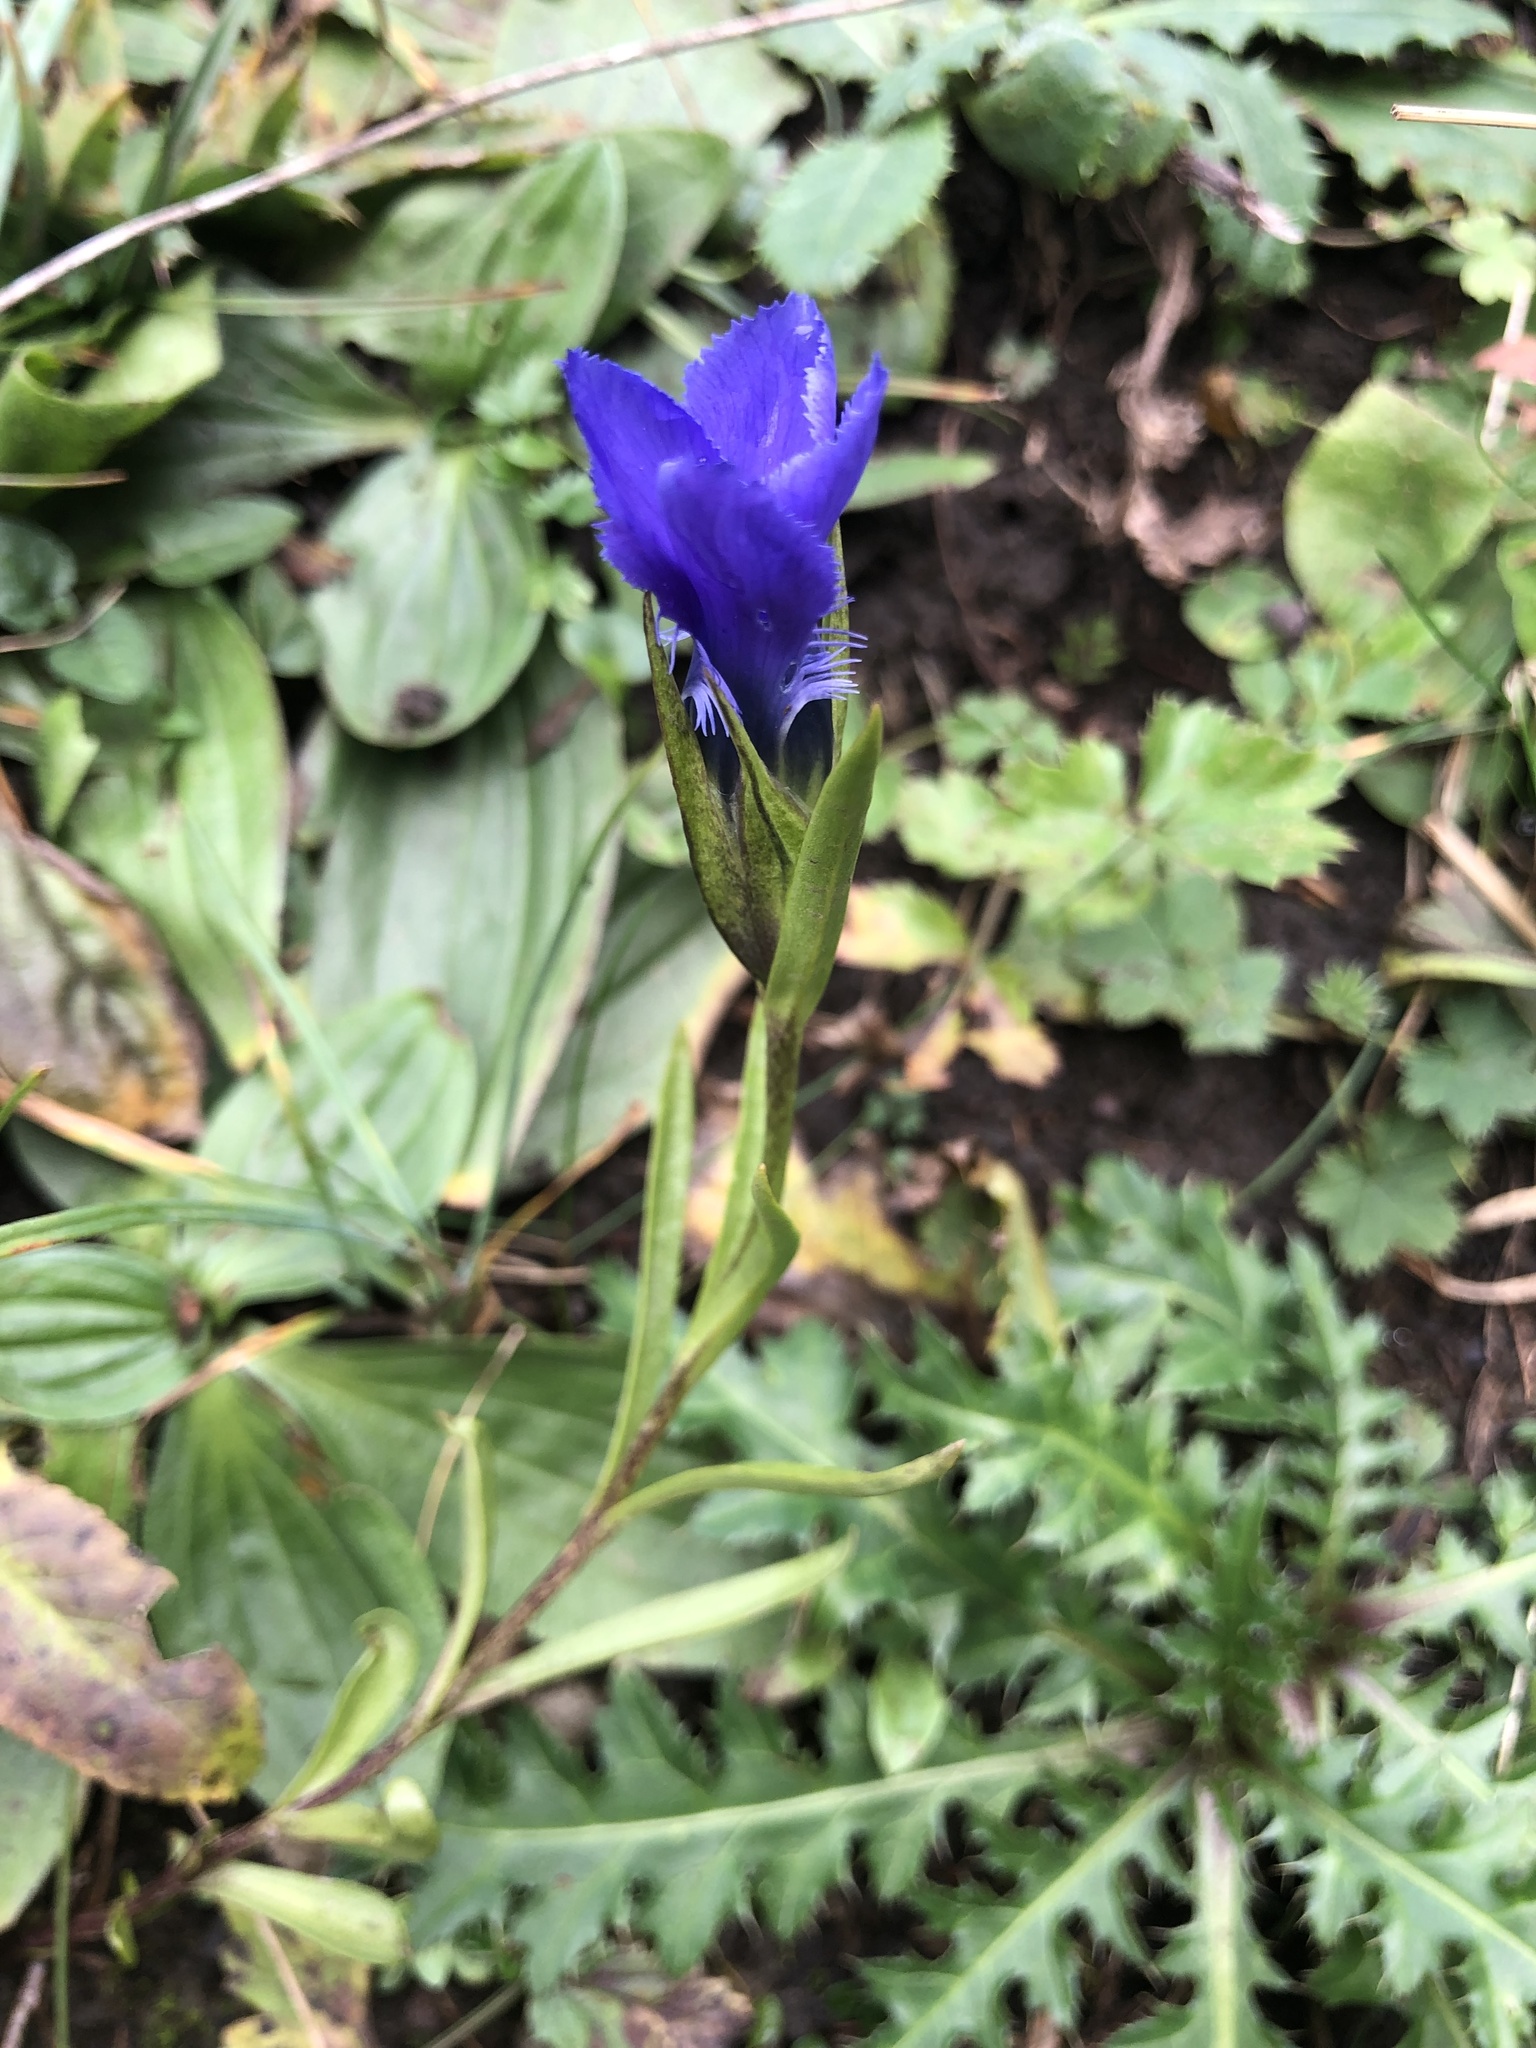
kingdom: Plantae
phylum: Tracheophyta
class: Magnoliopsida
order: Gentianales
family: Gentianaceae
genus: Gentianopsis
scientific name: Gentianopsis ciliata
